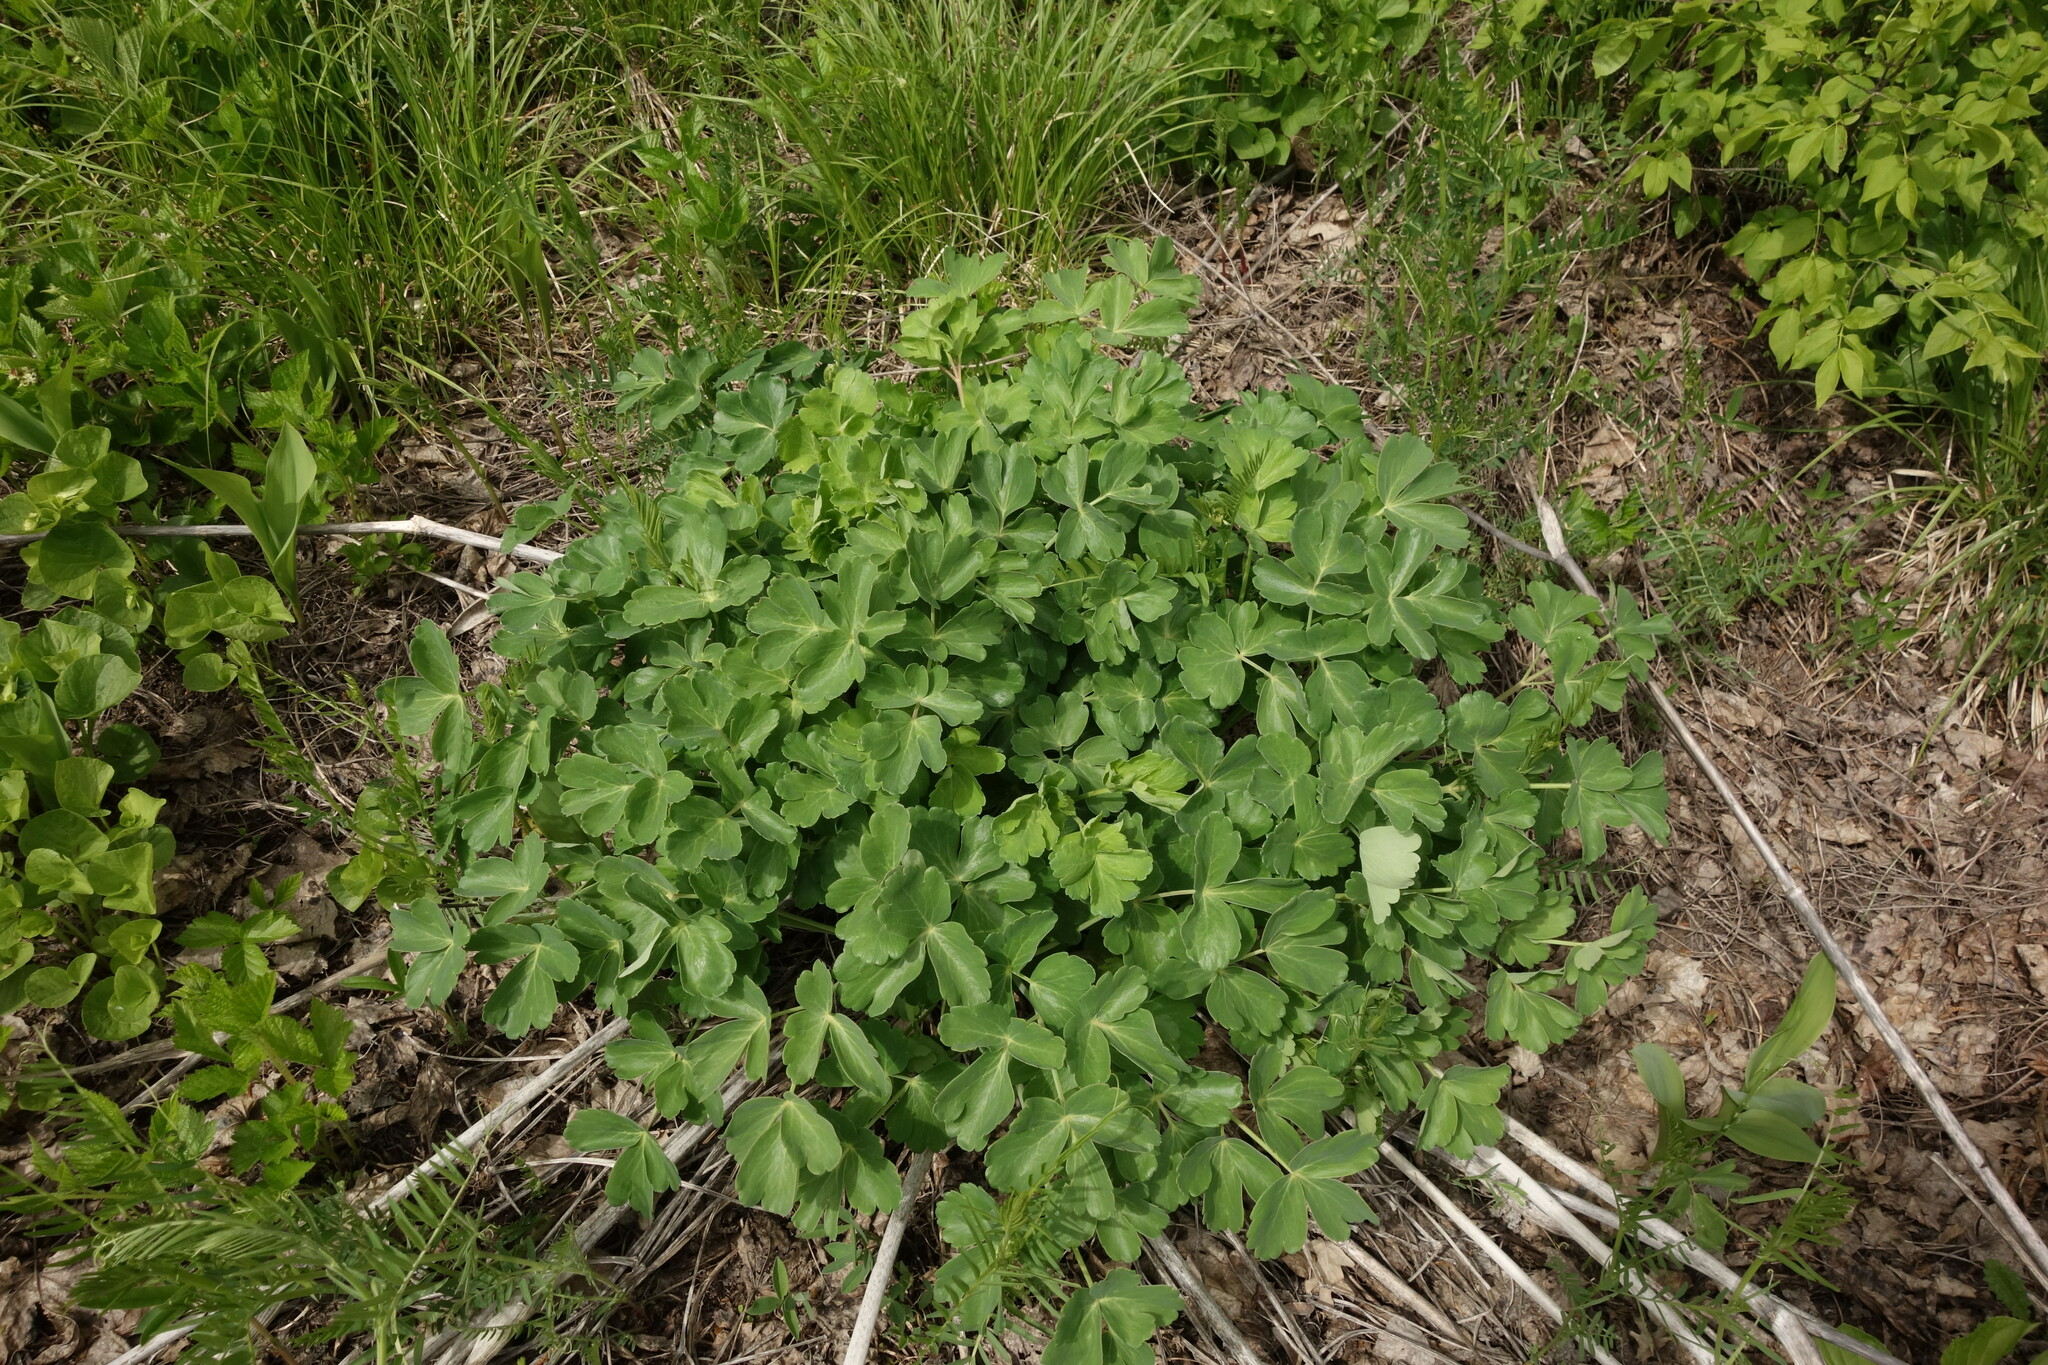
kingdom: Plantae
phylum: Tracheophyta
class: Magnoliopsida
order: Apiales
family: Apiaceae
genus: Laser
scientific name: Laser trilobum
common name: Laser
